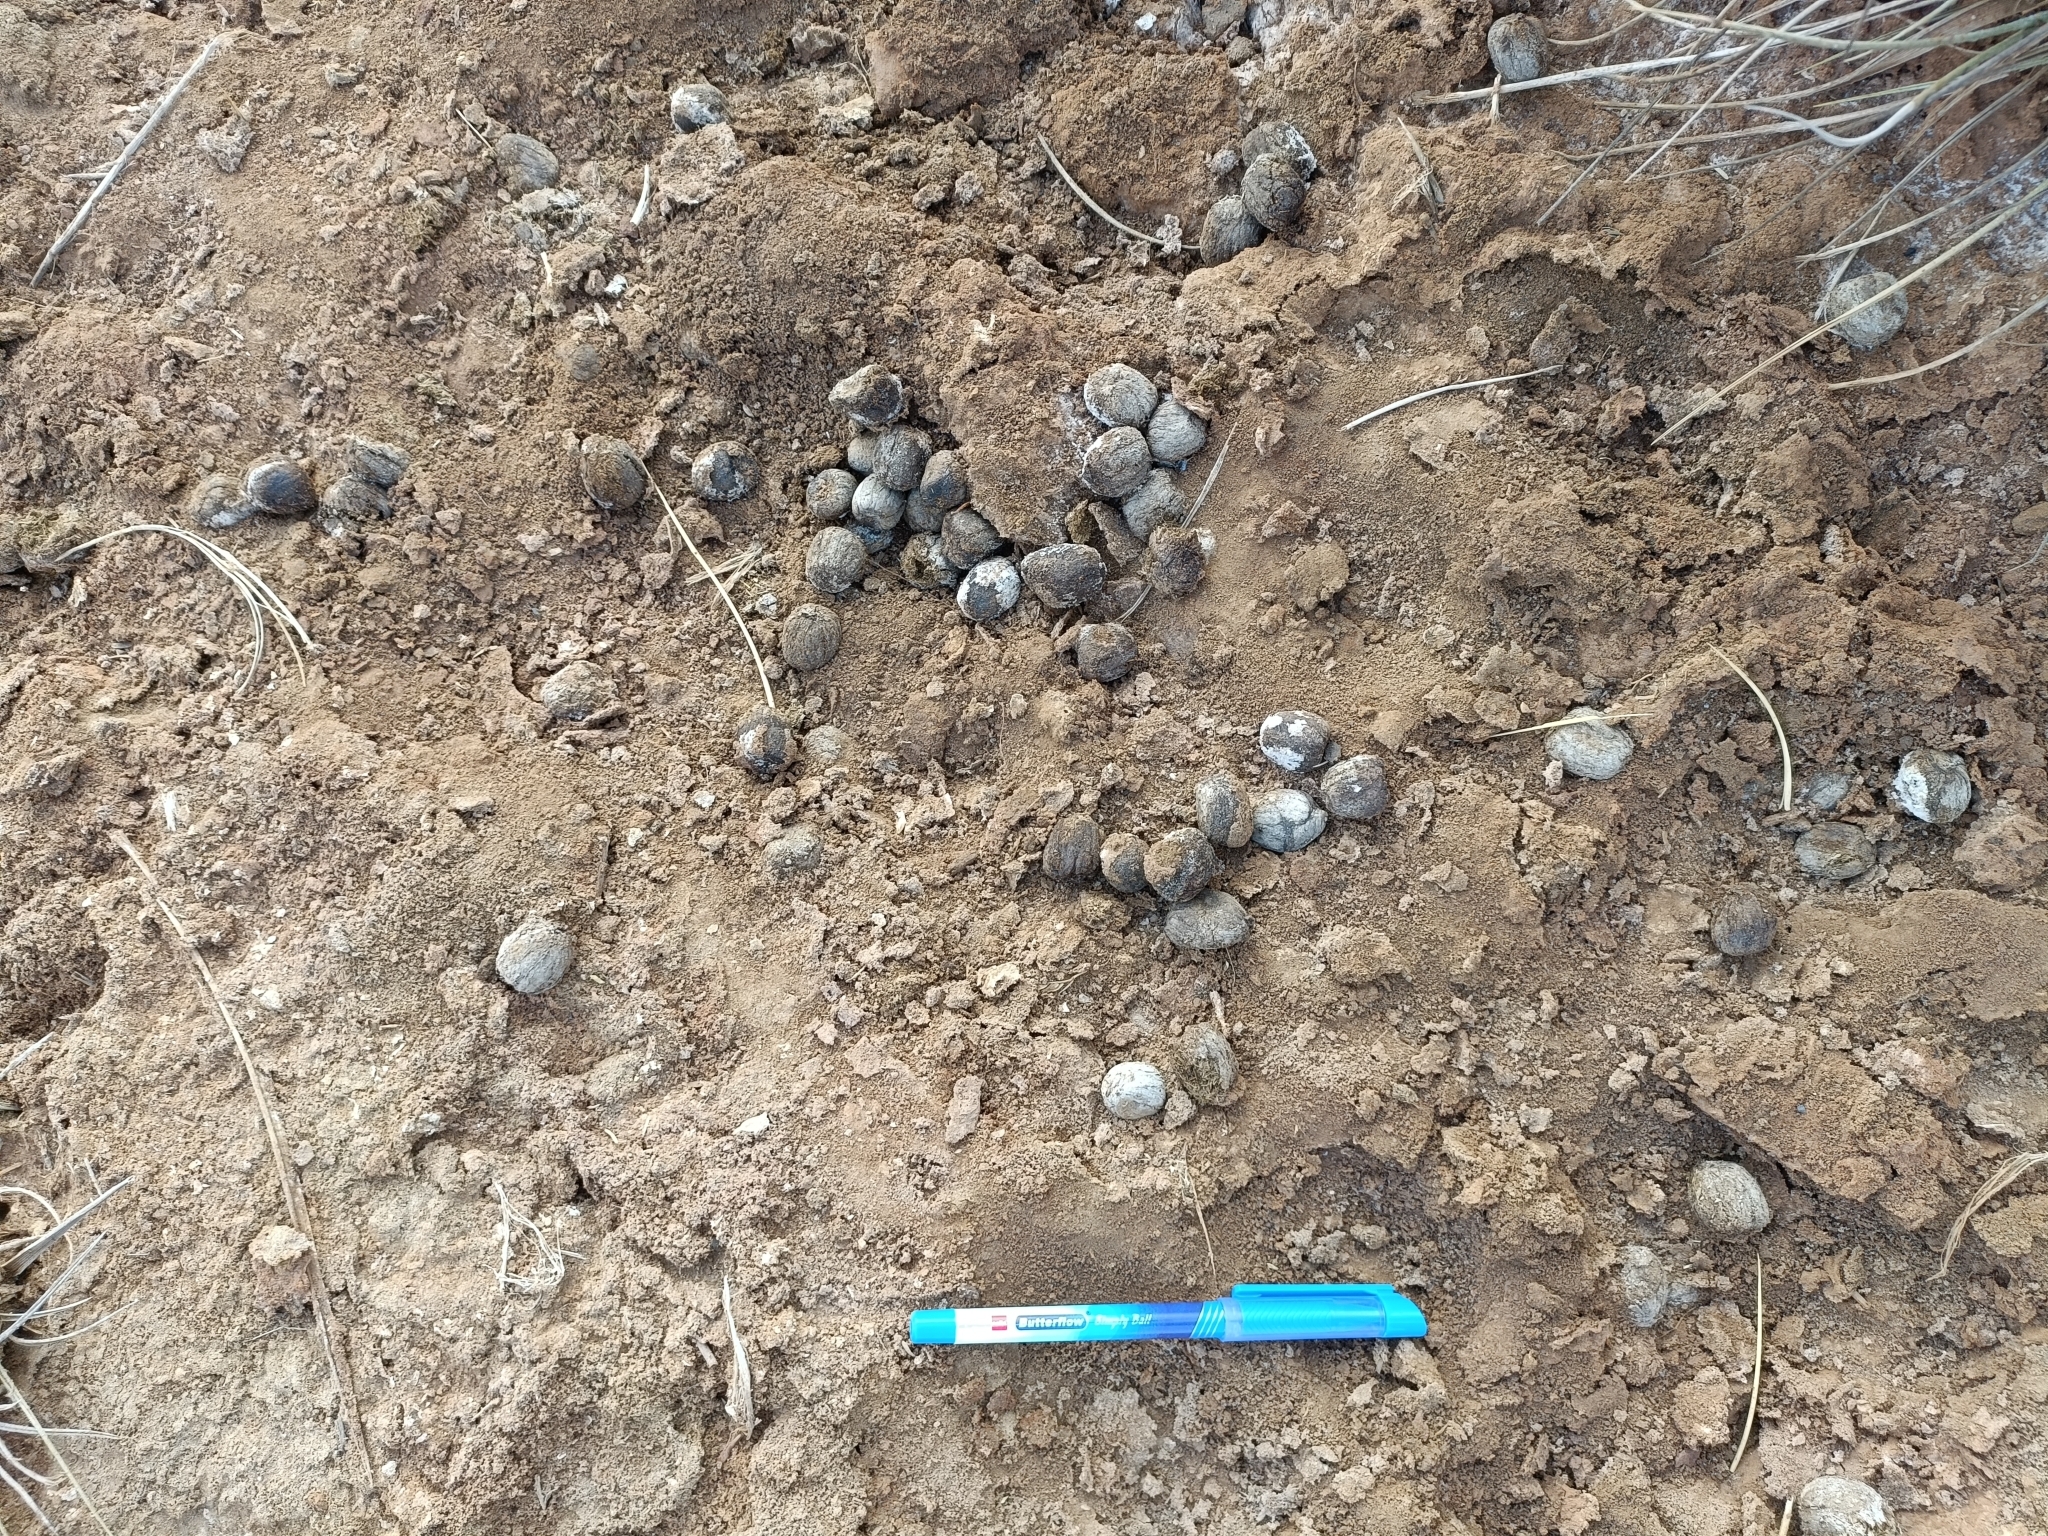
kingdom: Animalia
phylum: Chordata
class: Mammalia
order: Artiodactyla
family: Bovidae
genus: Boselaphus
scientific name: Boselaphus tragocamelus
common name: Nilgai
